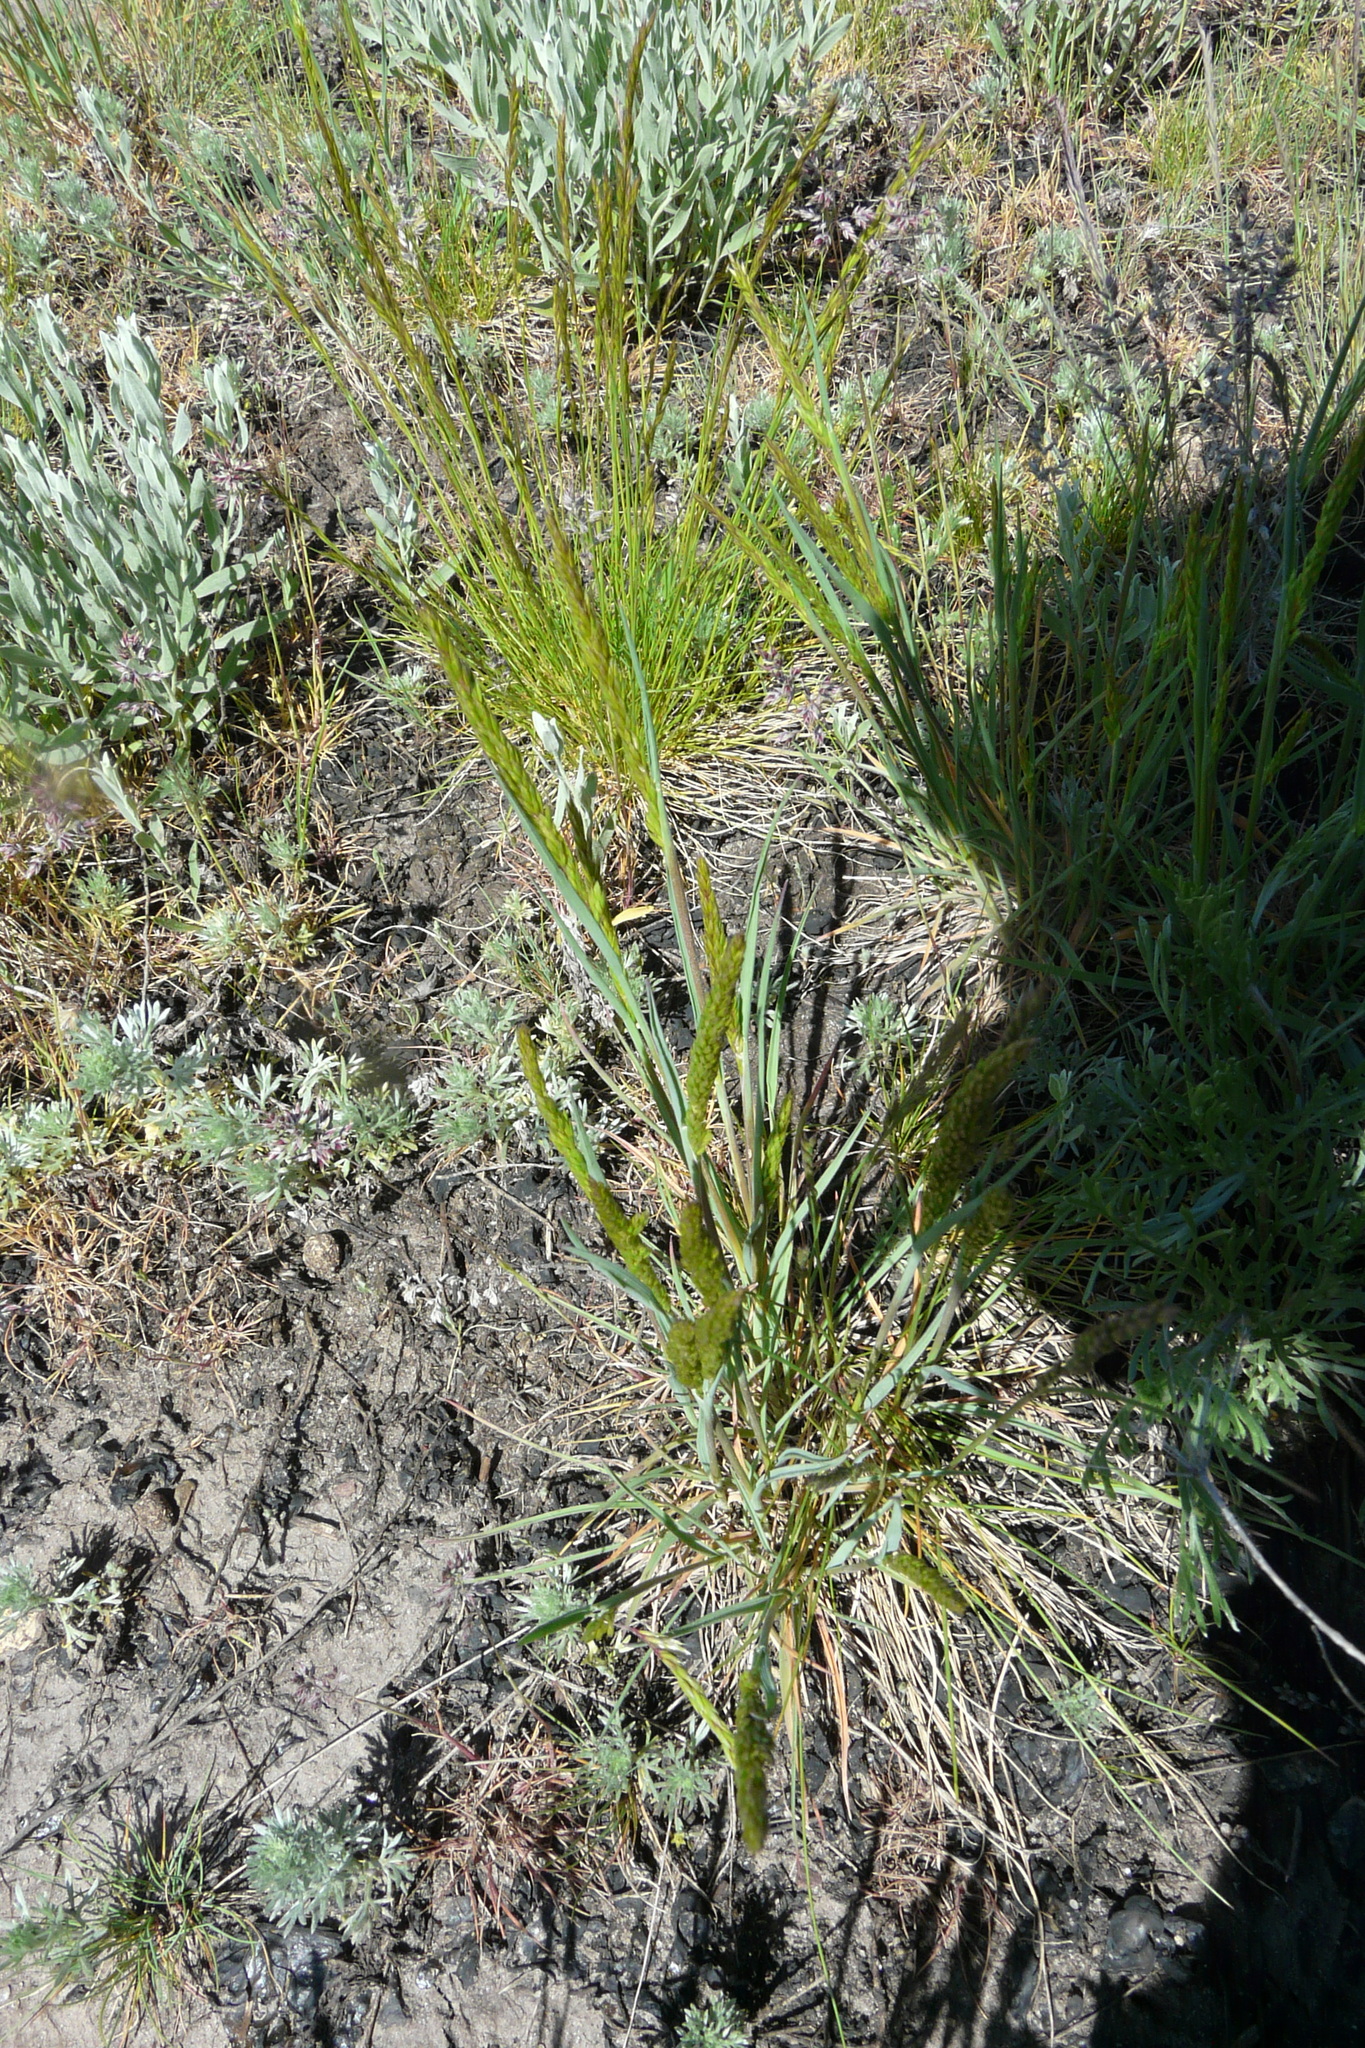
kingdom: Plantae
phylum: Tracheophyta
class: Magnoliopsida
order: Ranunculales
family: Ranunculaceae
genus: Myosurus
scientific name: Myosurus minimus
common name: Mousetail
